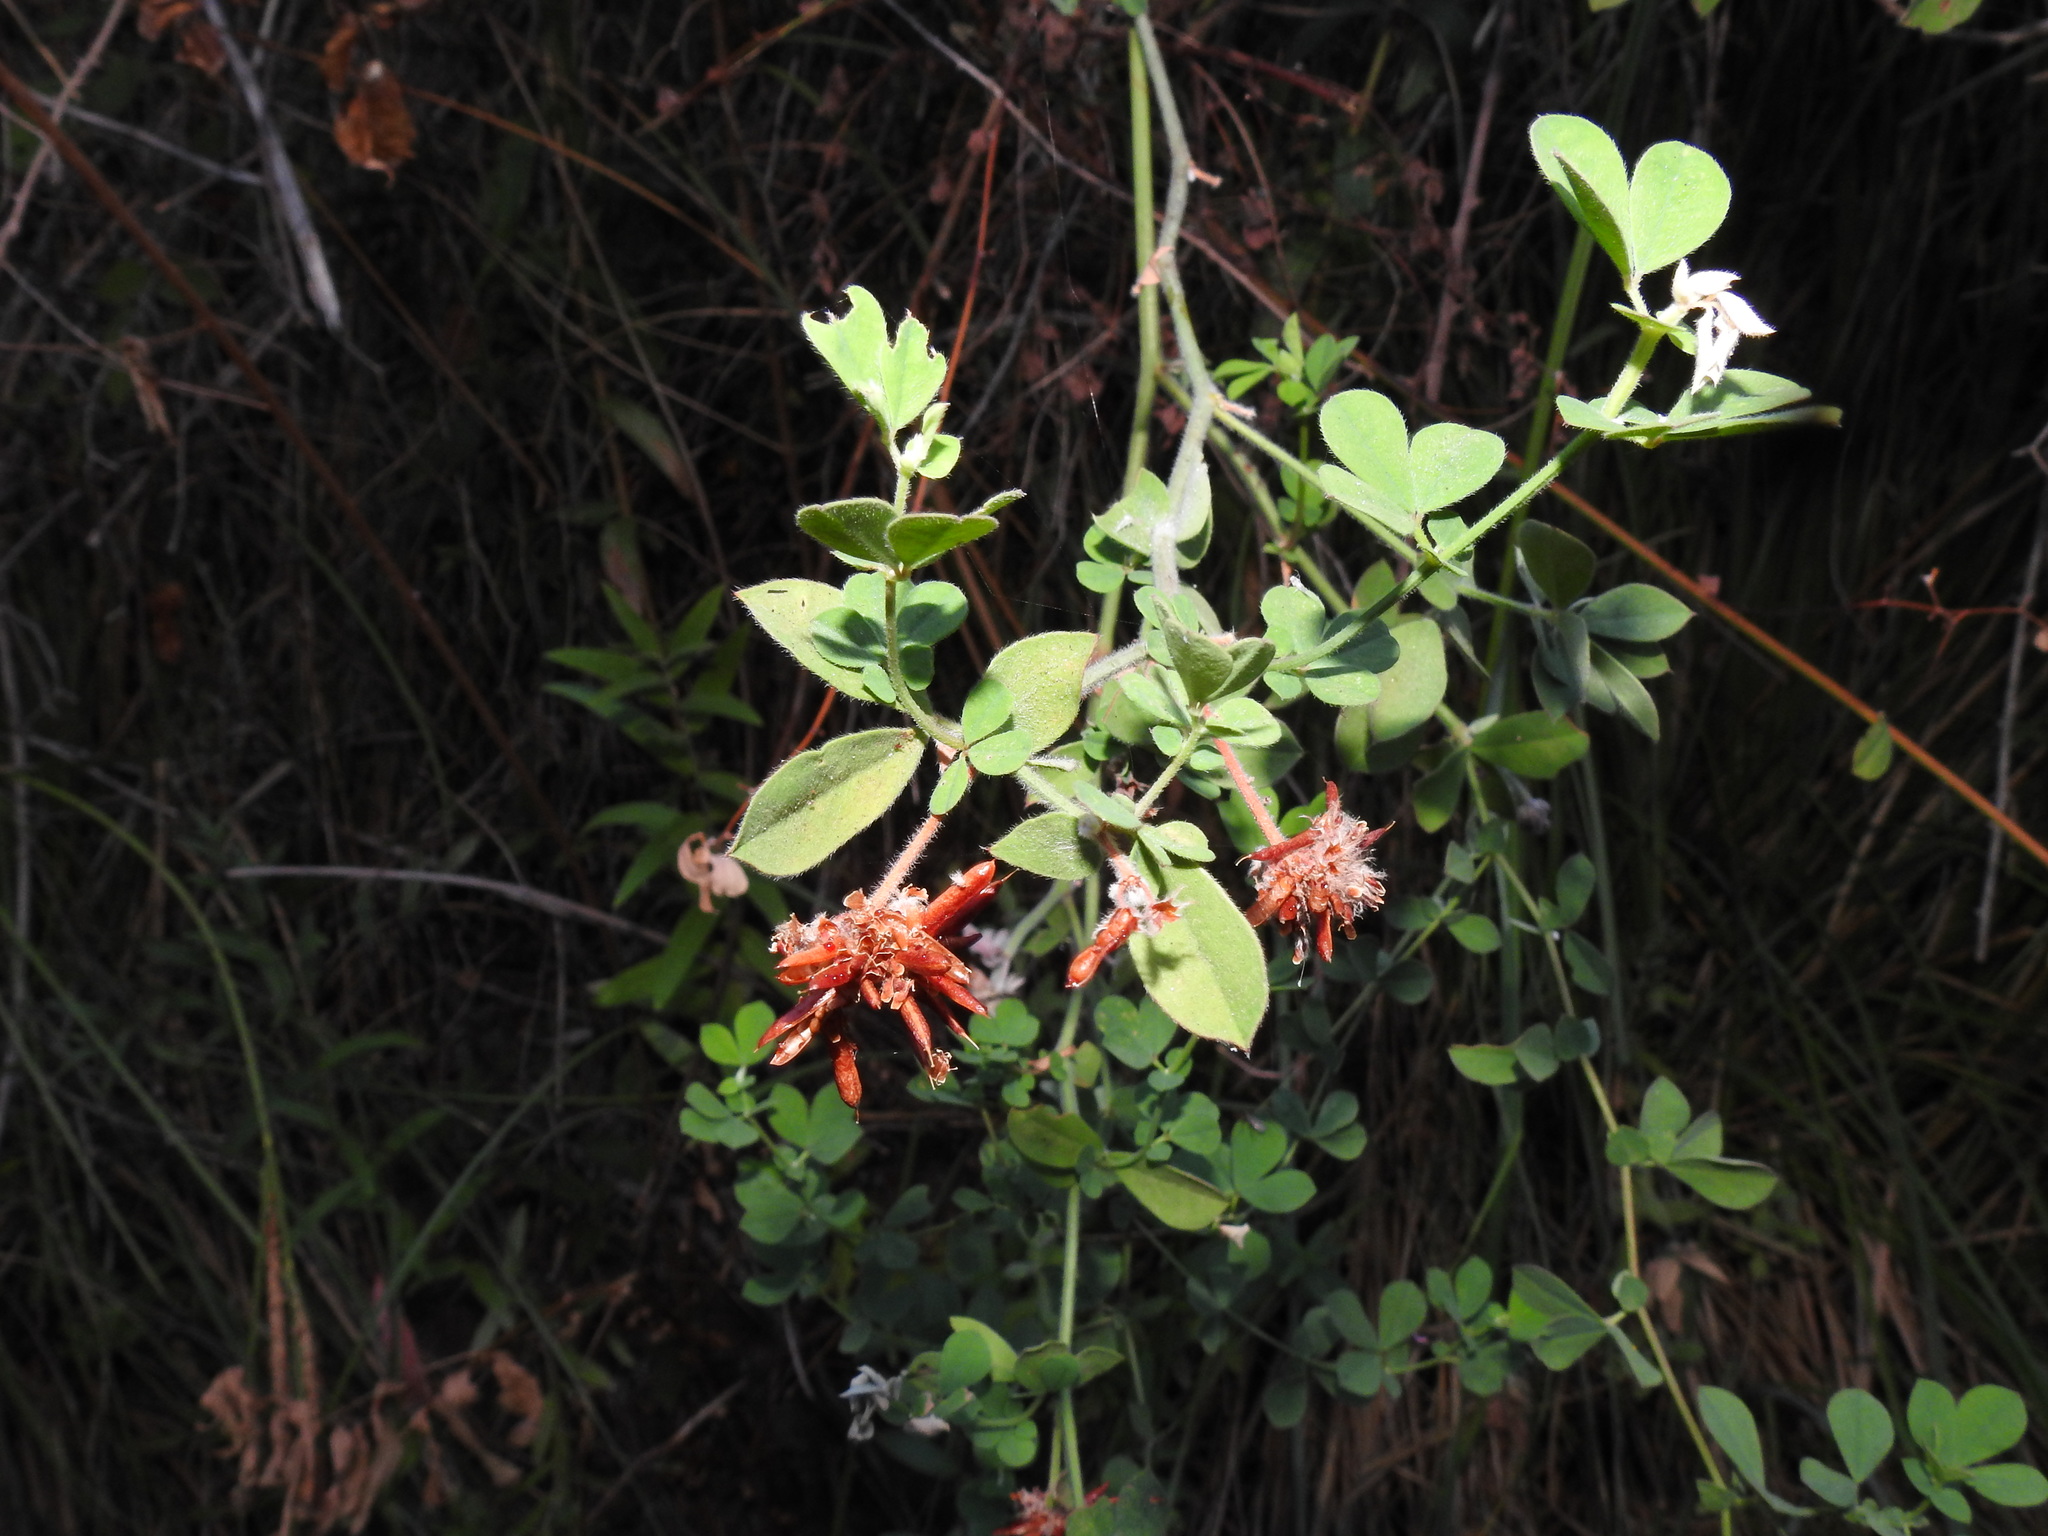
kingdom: Plantae
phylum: Tracheophyta
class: Magnoliopsida
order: Fabales
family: Fabaceae
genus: Lotus
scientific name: Lotus rectus
